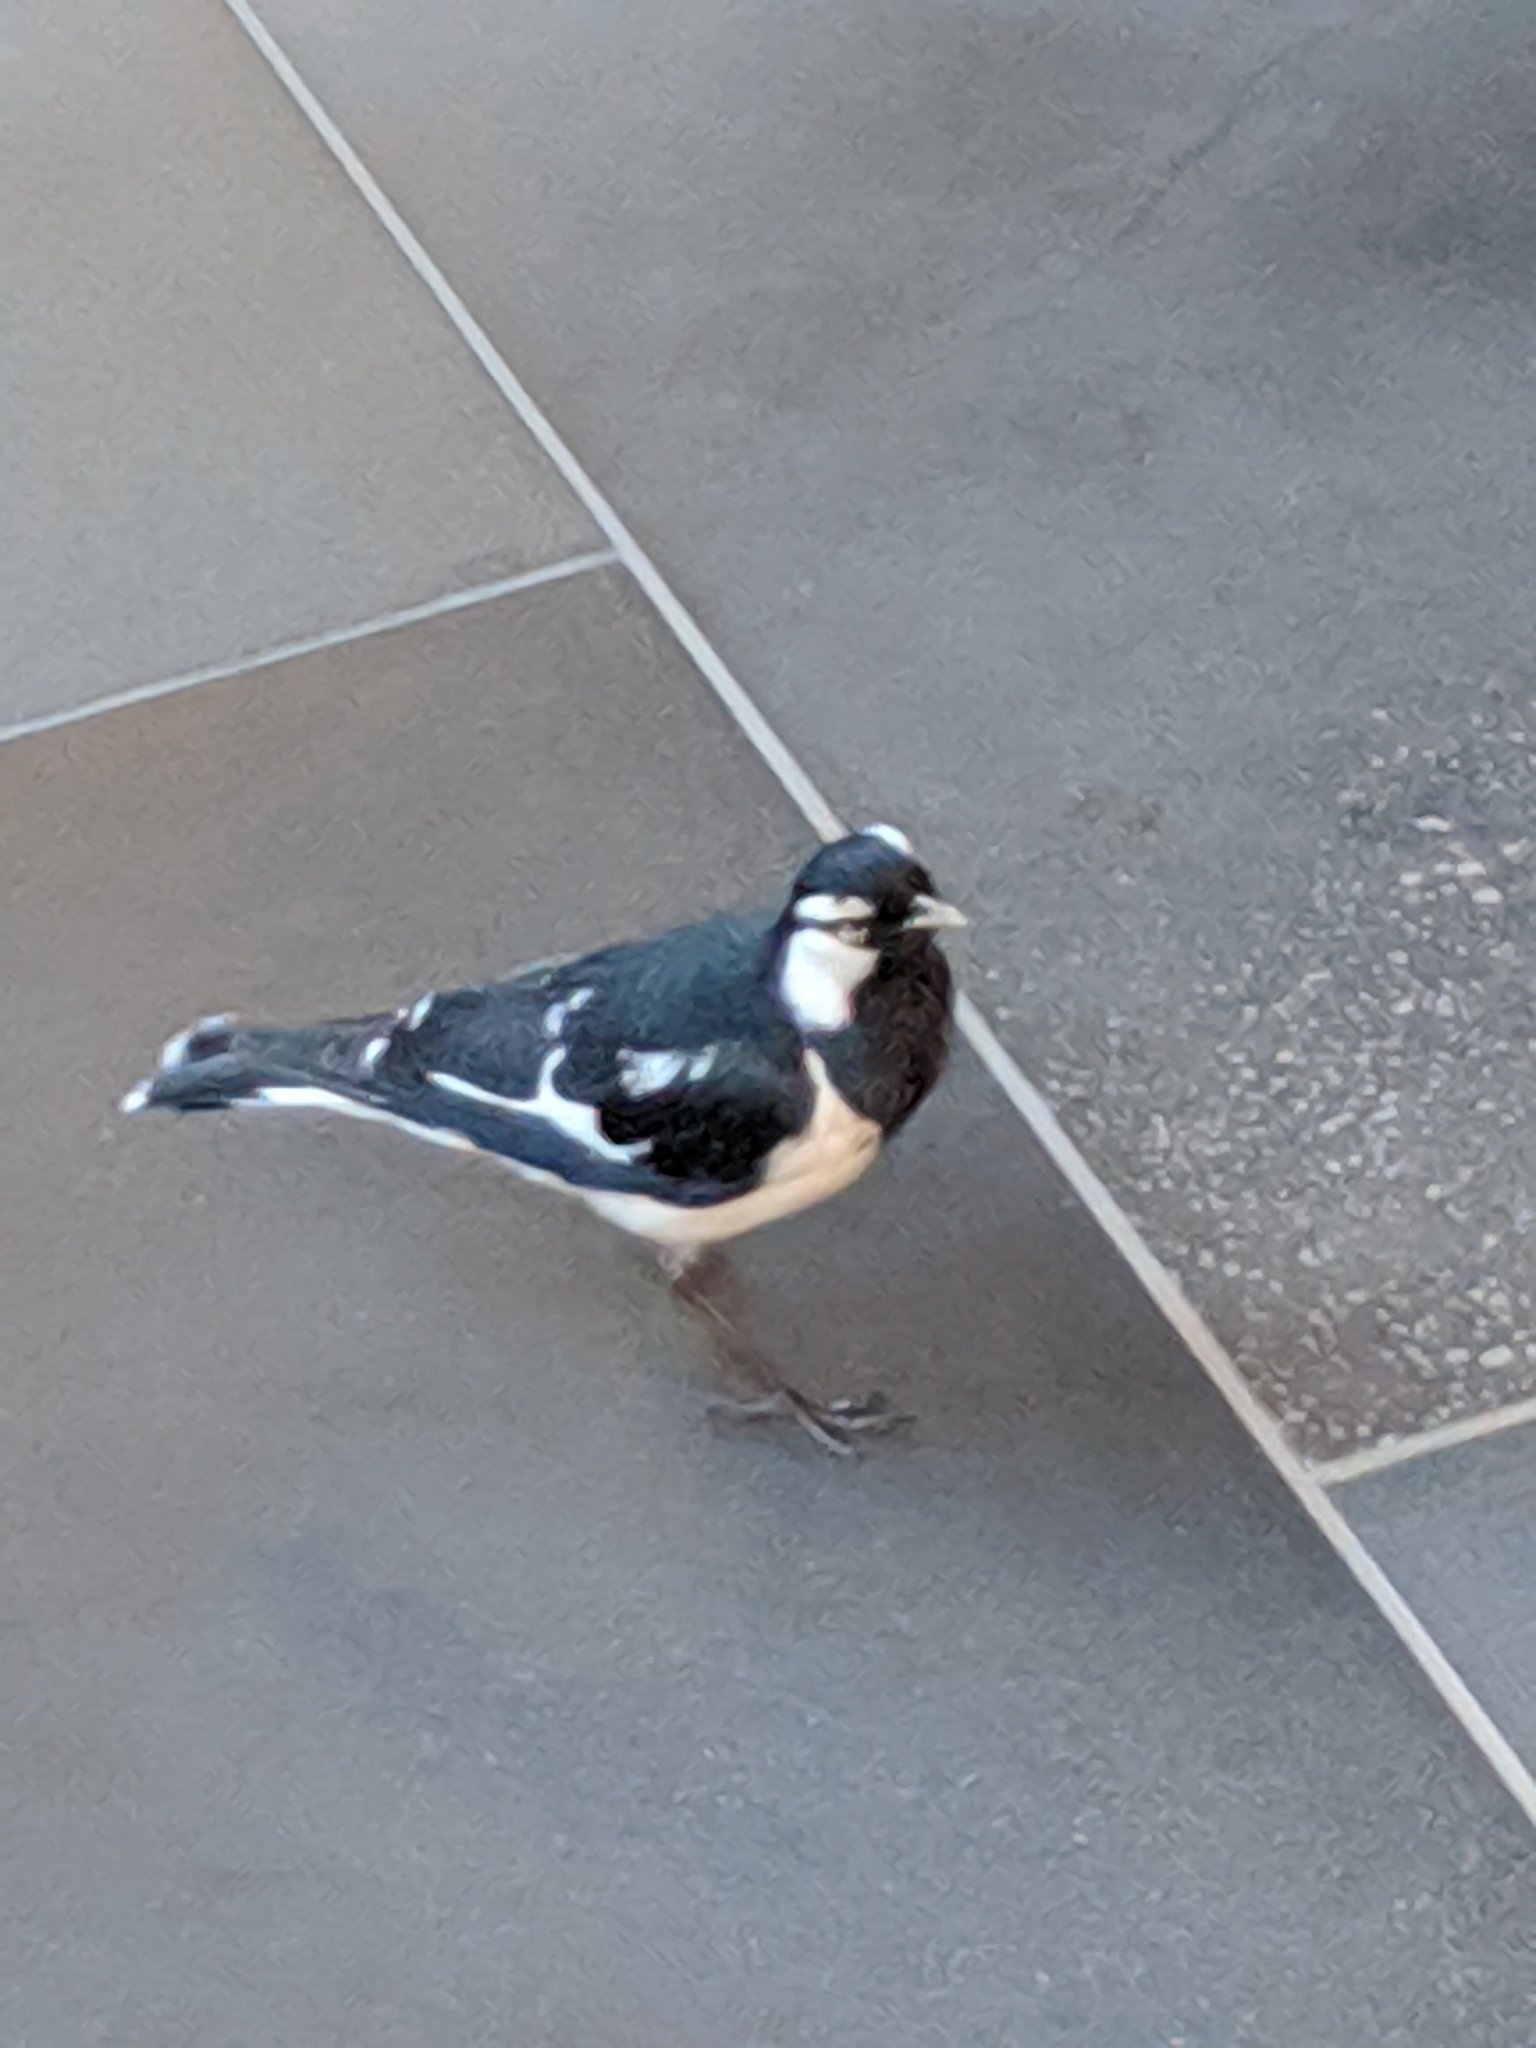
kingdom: Animalia
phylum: Chordata
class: Aves
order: Passeriformes
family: Monarchidae
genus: Grallina
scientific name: Grallina cyanoleuca
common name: Magpie-lark
